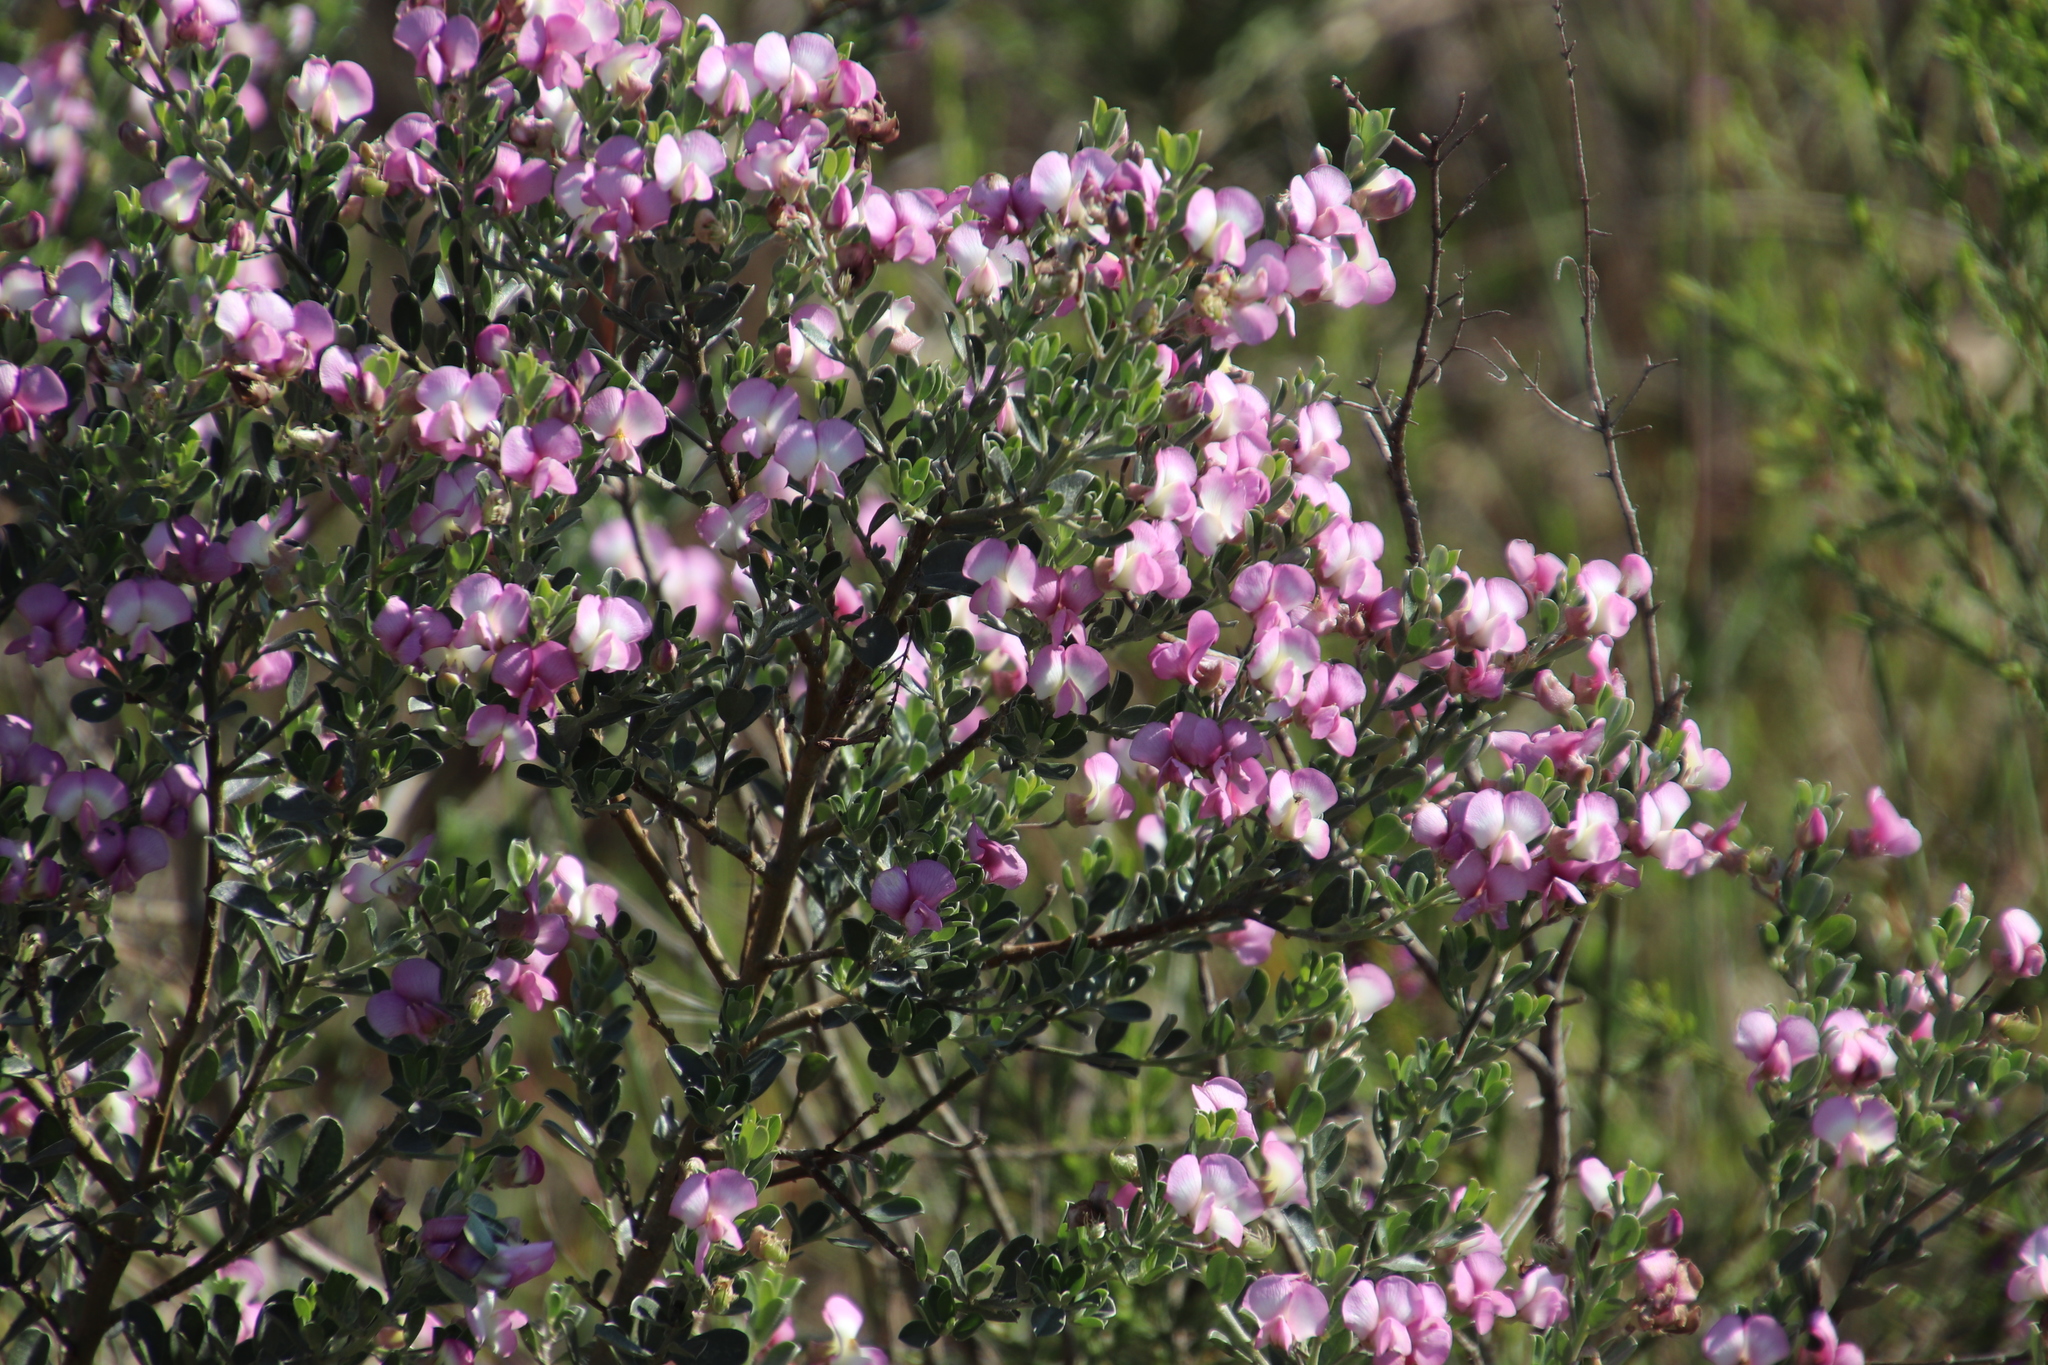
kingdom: Plantae
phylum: Tracheophyta
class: Magnoliopsida
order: Fabales
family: Fabaceae
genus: Podalyria
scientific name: Podalyria myrtillifolia
